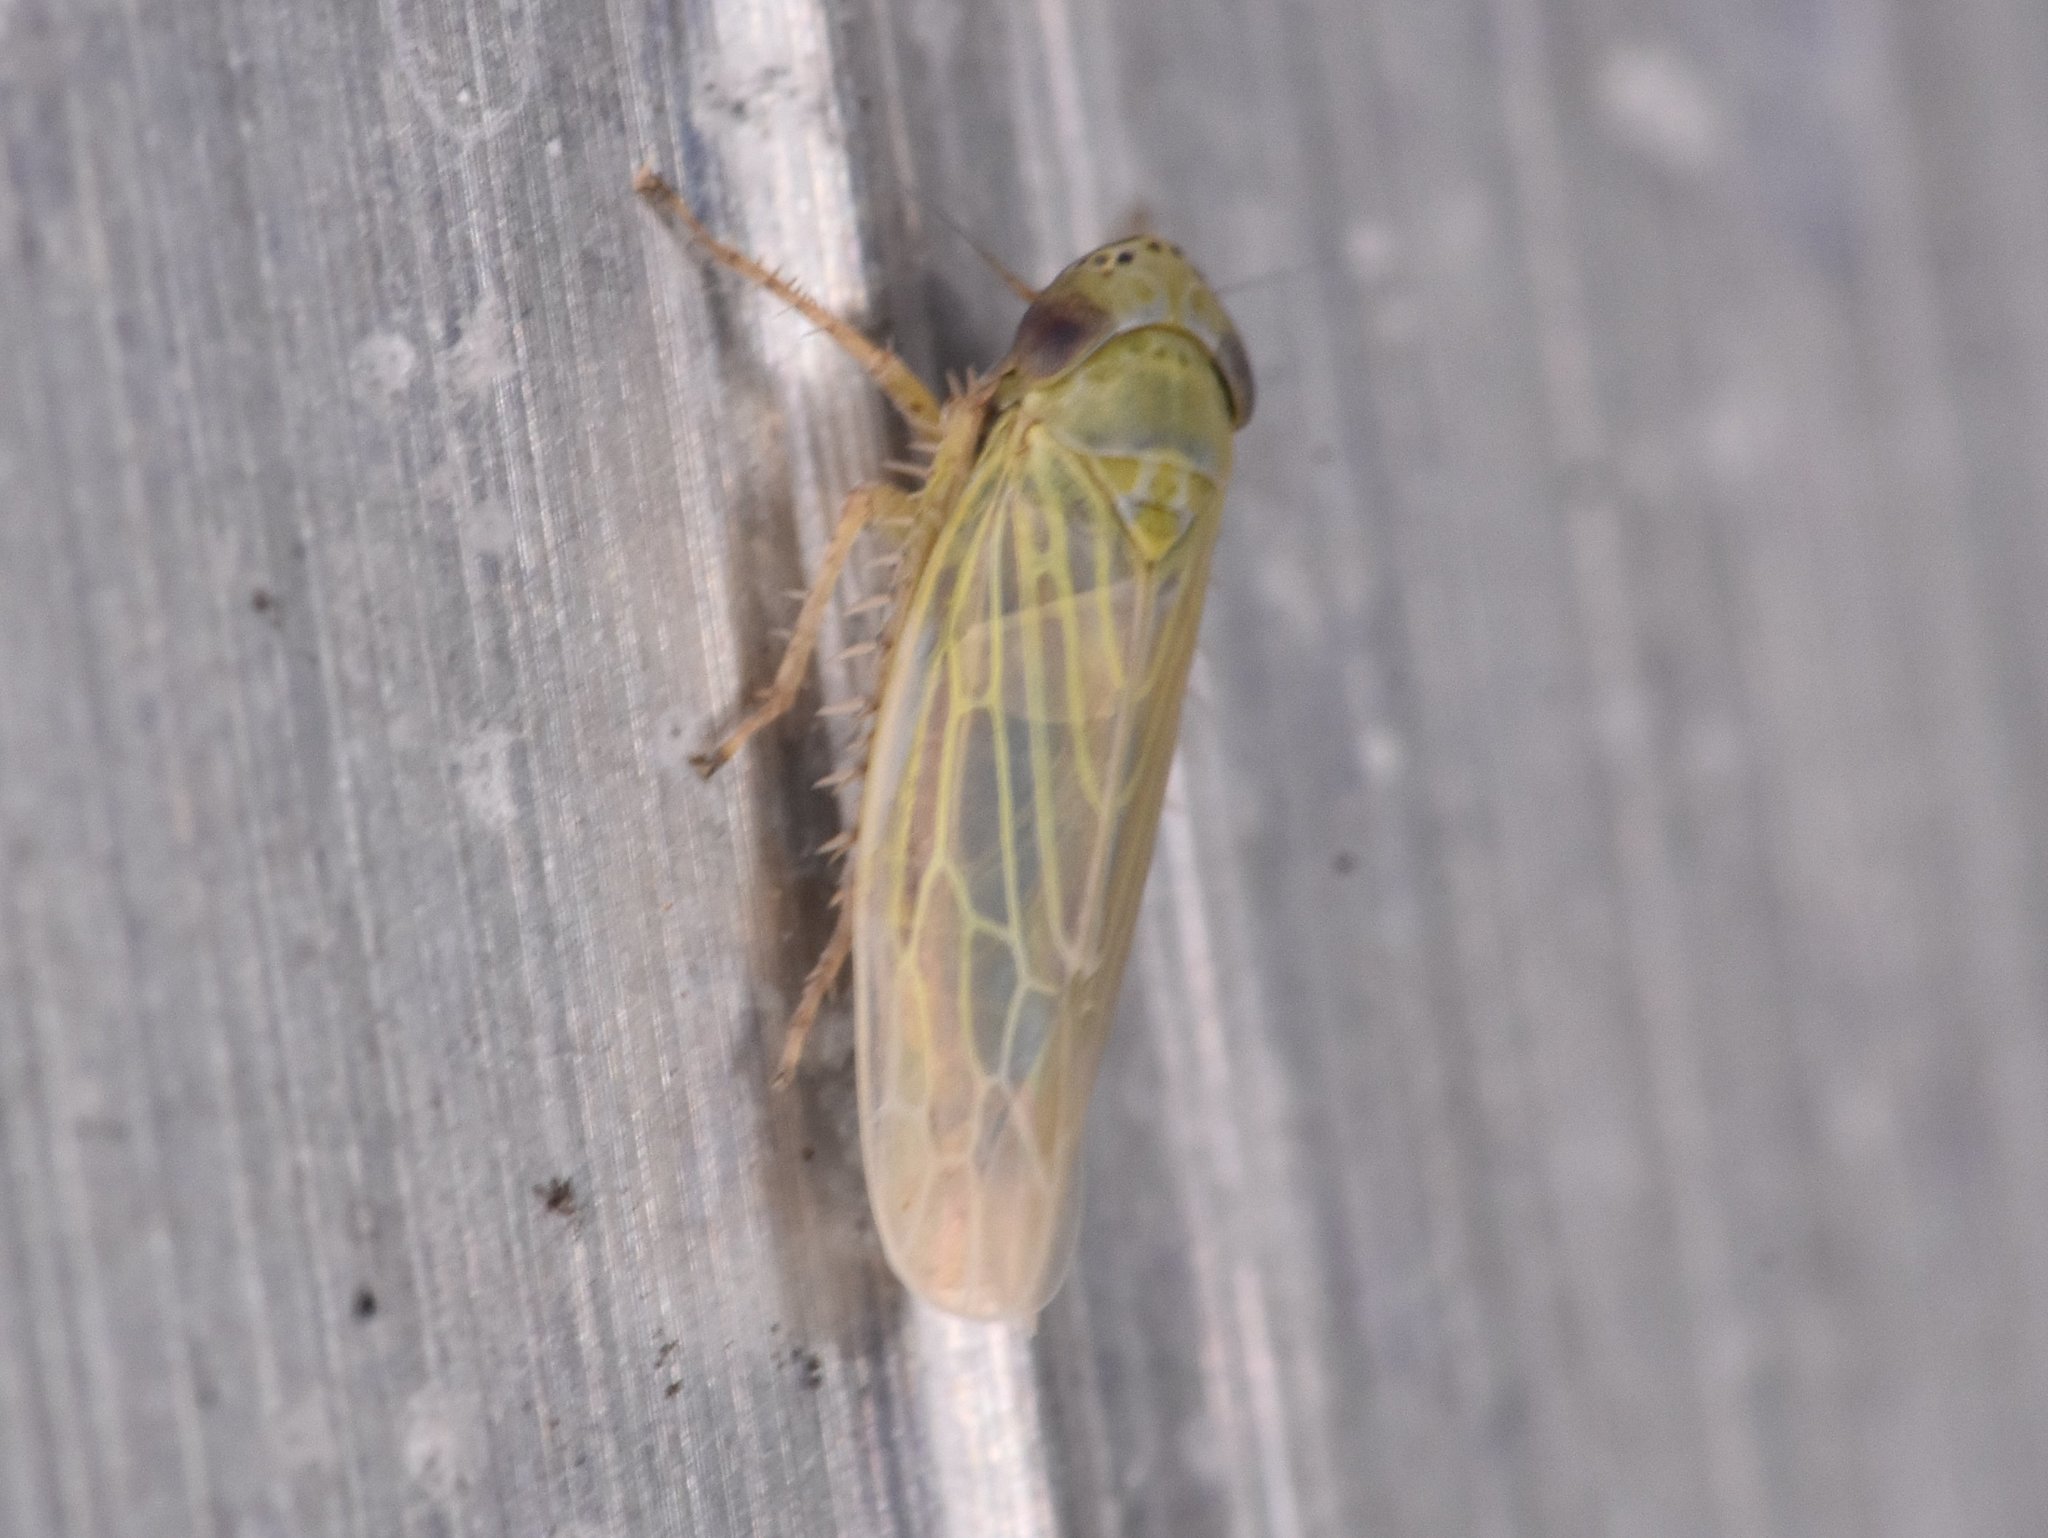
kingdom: Animalia
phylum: Arthropoda
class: Insecta
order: Hemiptera
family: Cicadellidae
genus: Graminella
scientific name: Graminella nigrifrons
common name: Blackfaced leafhopper
